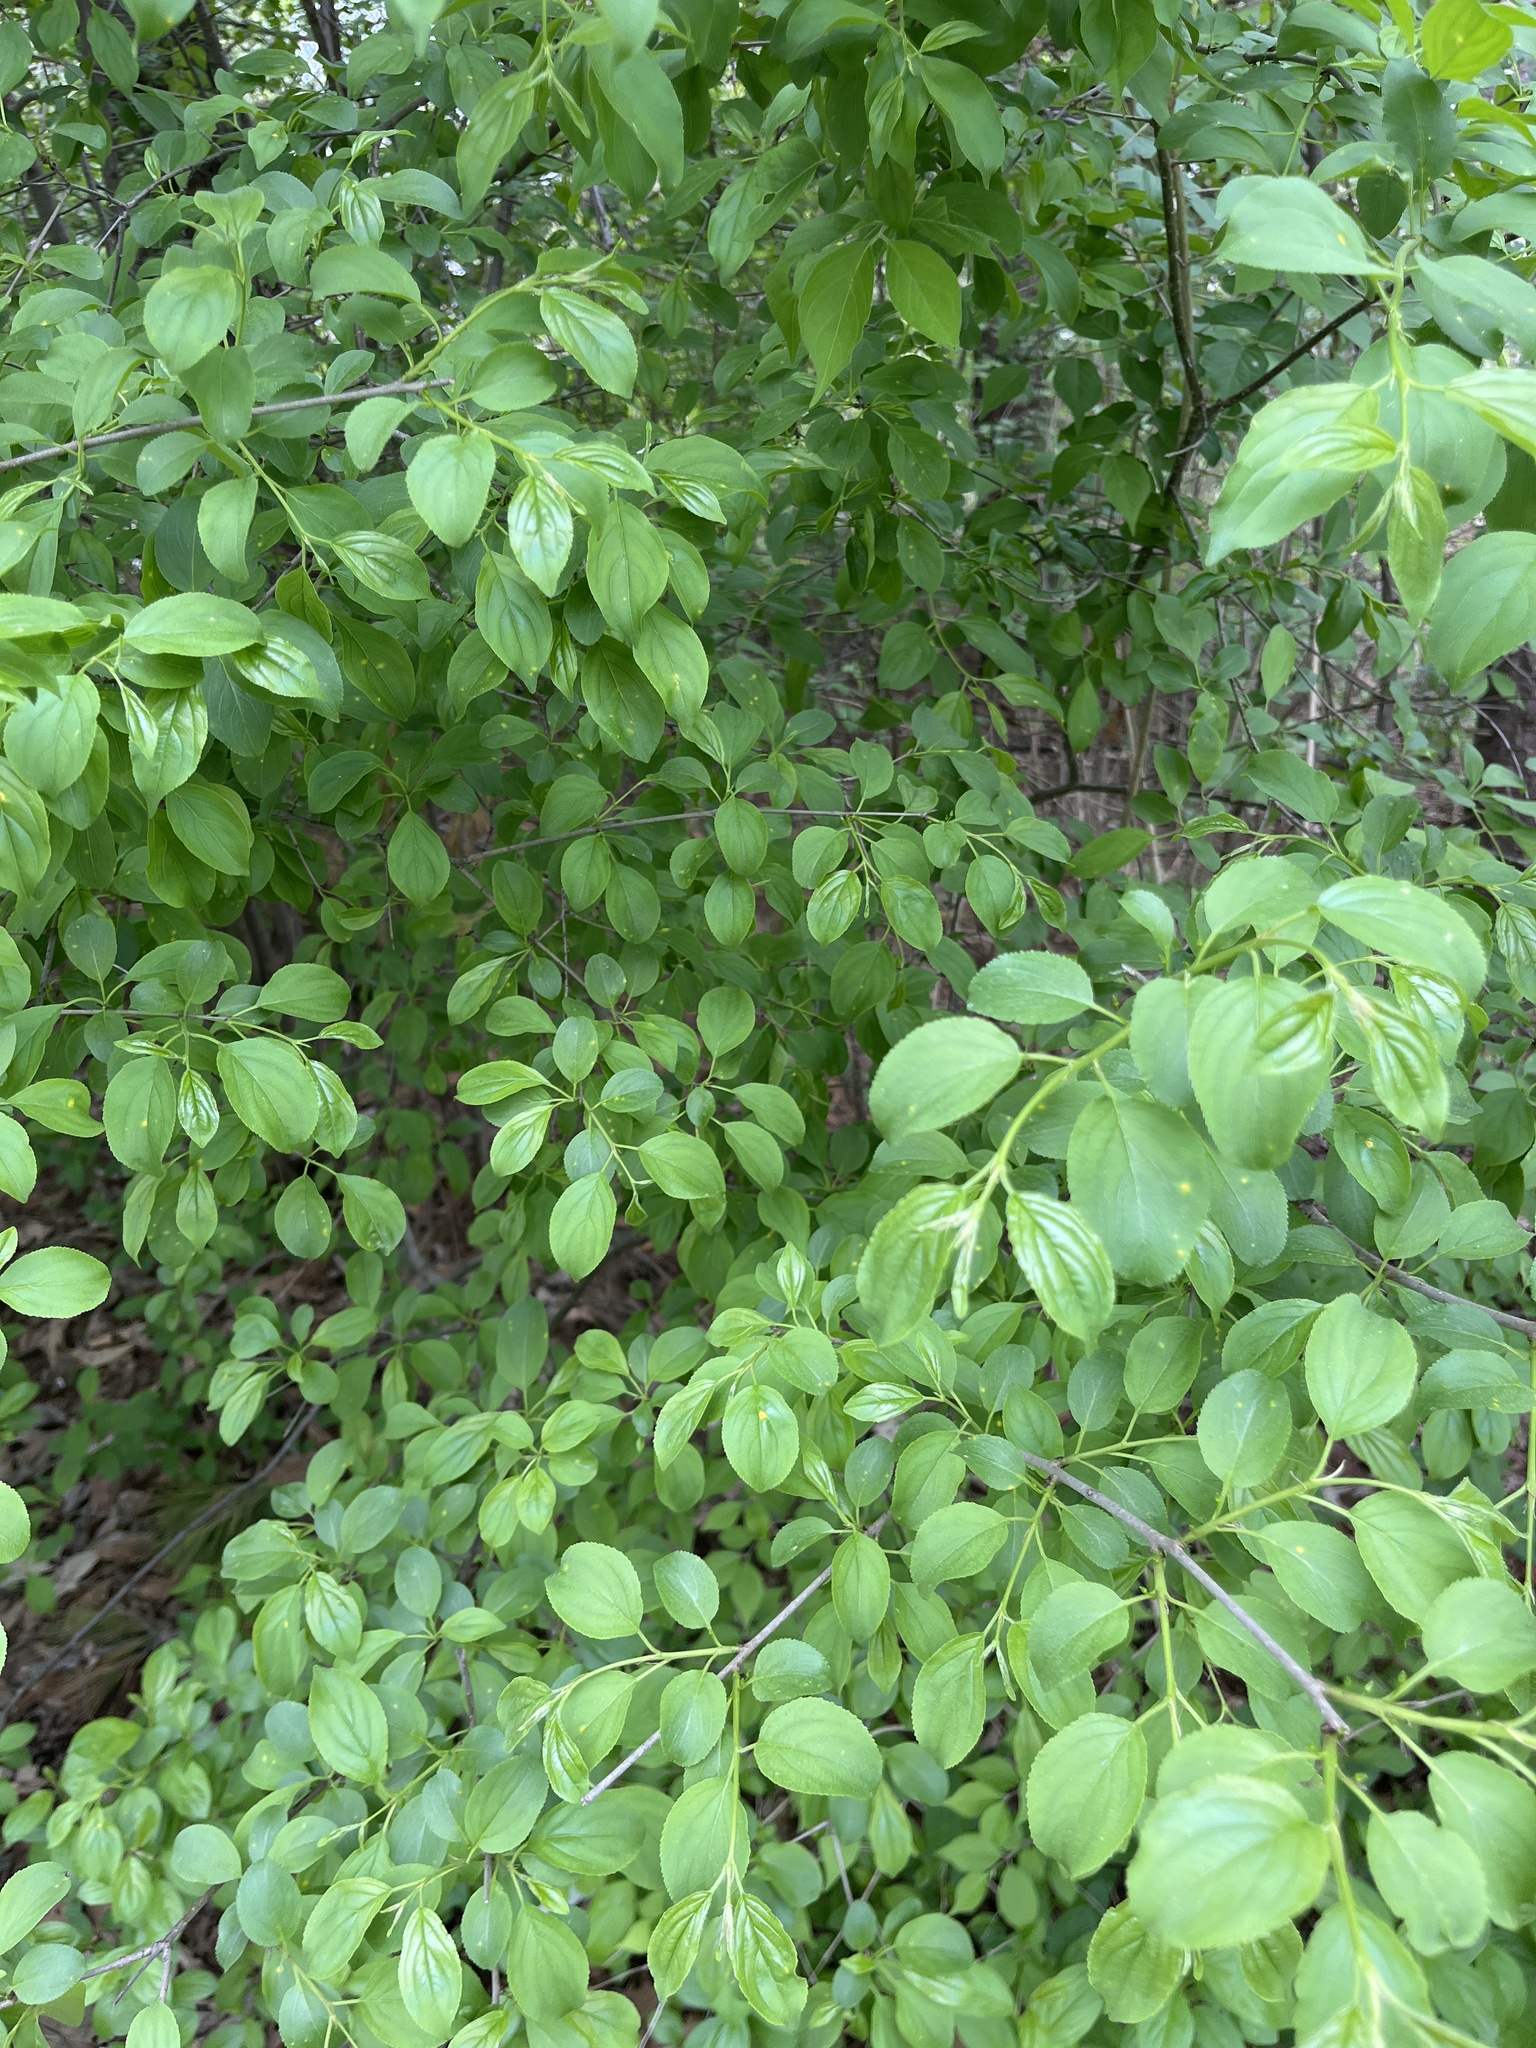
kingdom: Plantae
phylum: Tracheophyta
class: Magnoliopsida
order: Rosales
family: Rhamnaceae
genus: Rhamnus
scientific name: Rhamnus cathartica
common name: Common buckthorn
